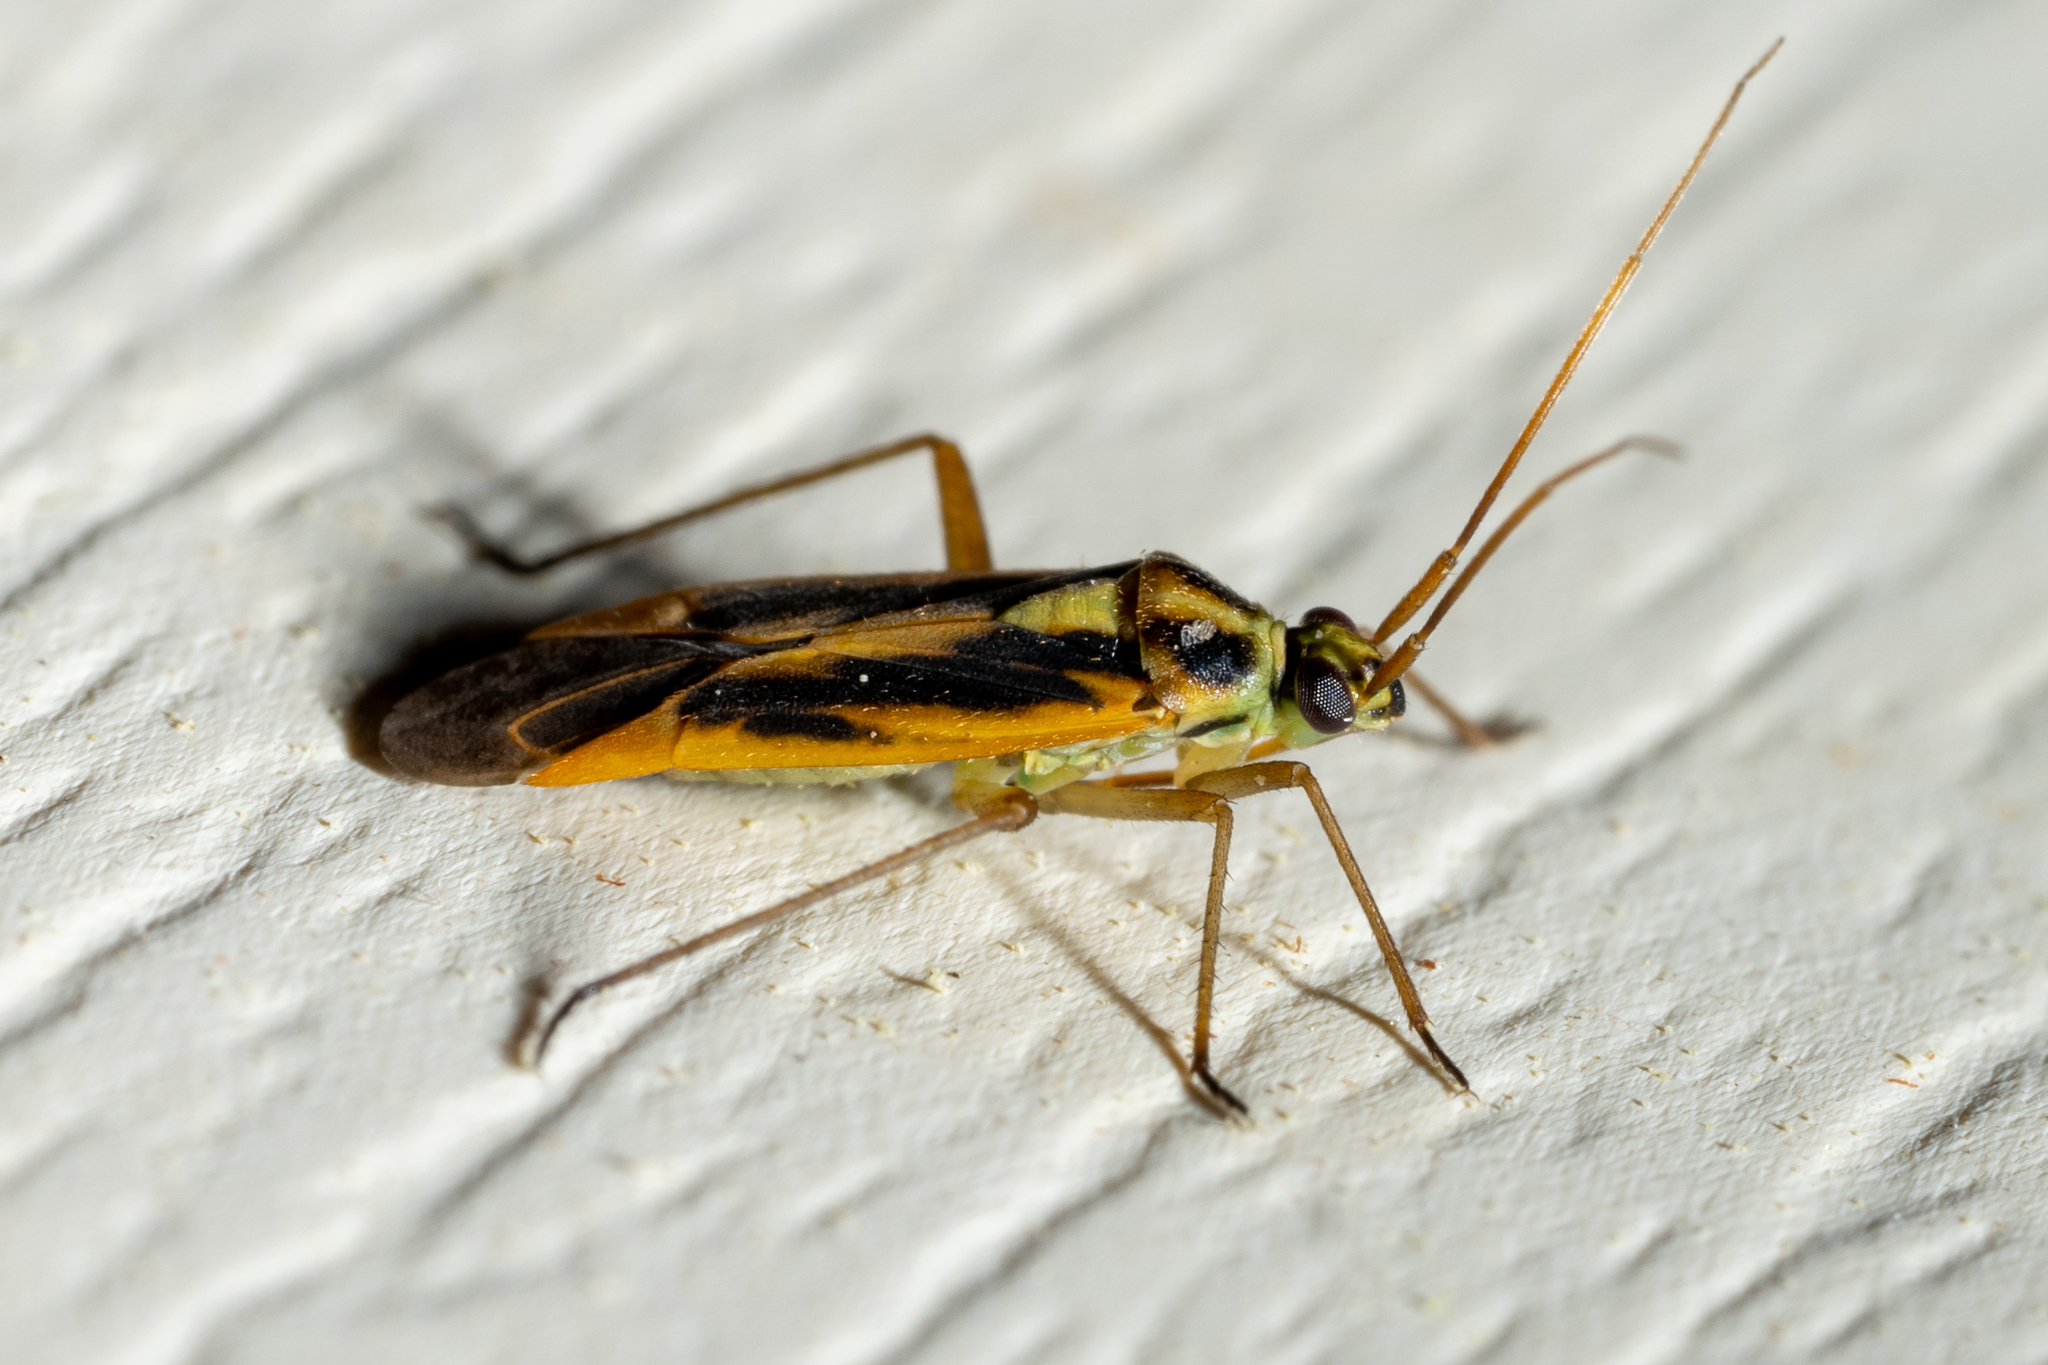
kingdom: Animalia
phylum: Arthropoda
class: Insecta
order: Hemiptera
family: Miridae
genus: Stenotus
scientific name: Stenotus binotatus
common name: Plant bug
